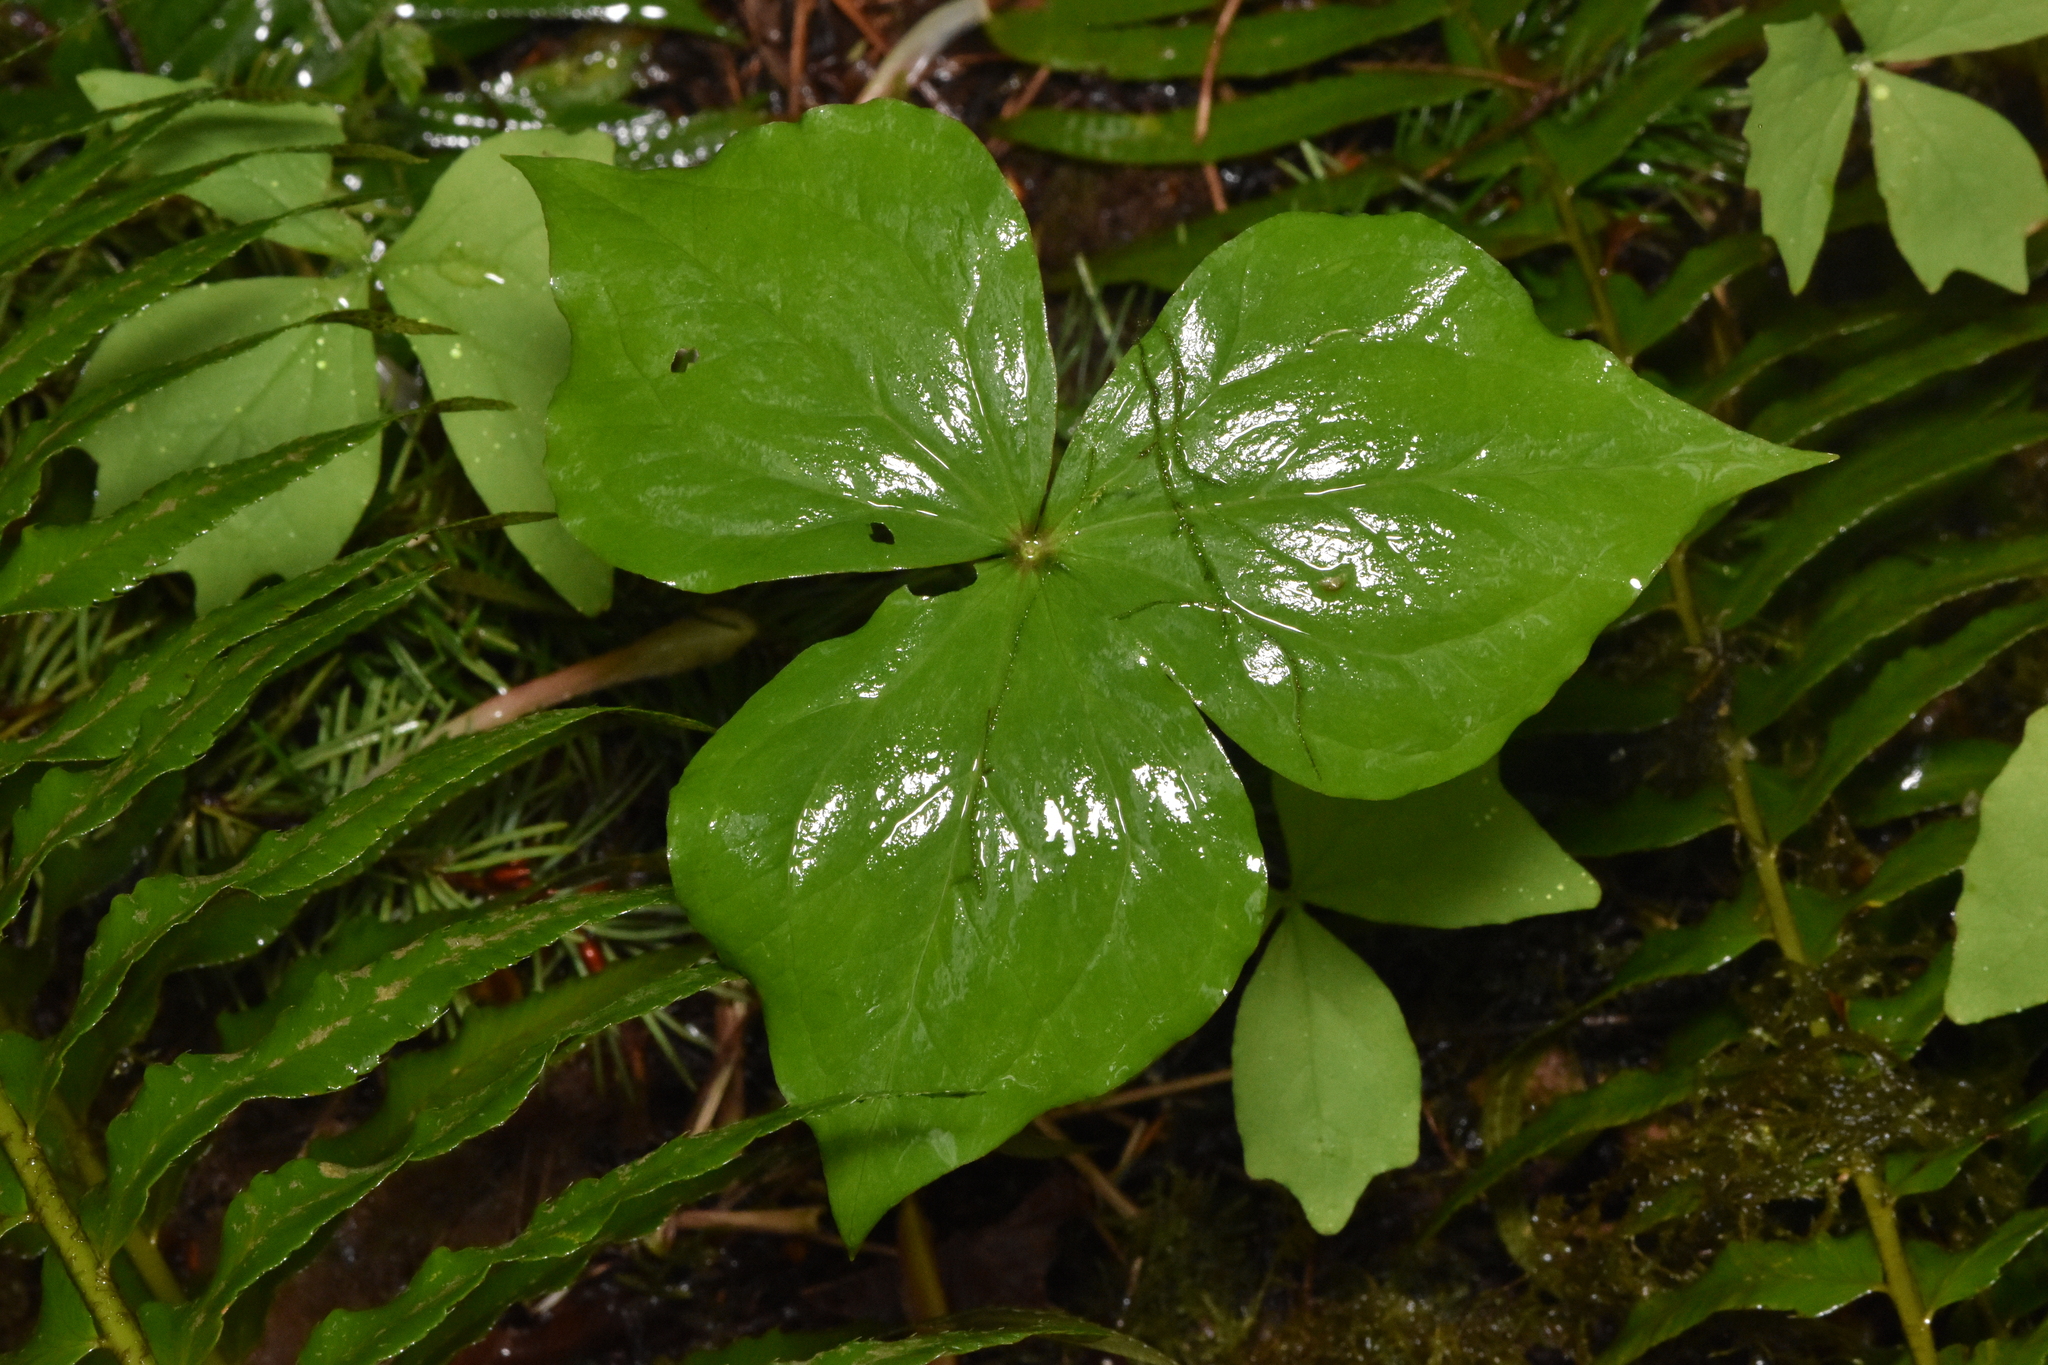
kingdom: Plantae
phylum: Tracheophyta
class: Liliopsida
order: Liliales
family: Melanthiaceae
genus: Trillium
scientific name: Trillium ovatum
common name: Pacific trillium
